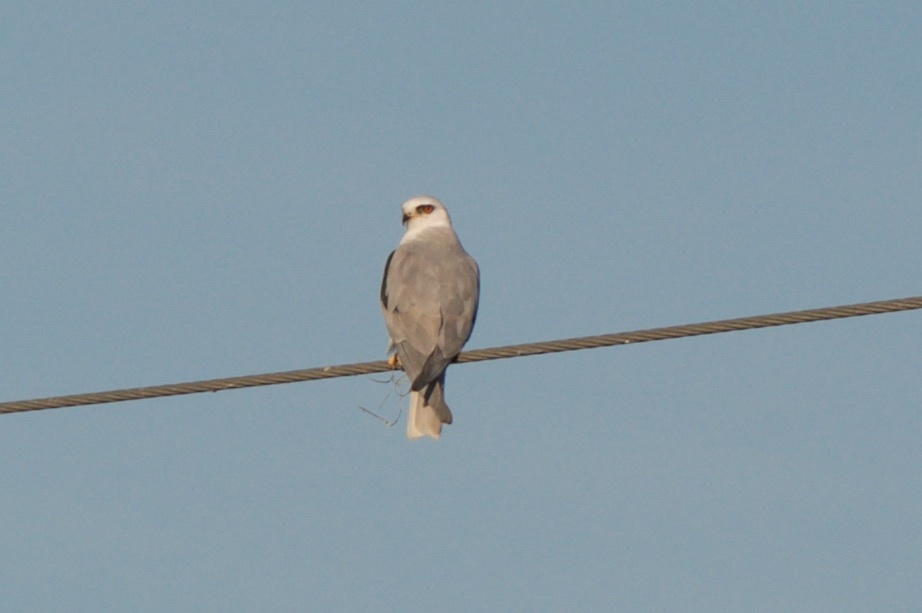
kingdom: Animalia
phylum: Chordata
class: Aves
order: Accipitriformes
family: Accipitridae
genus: Elanus
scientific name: Elanus leucurus
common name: White-tailed kite
